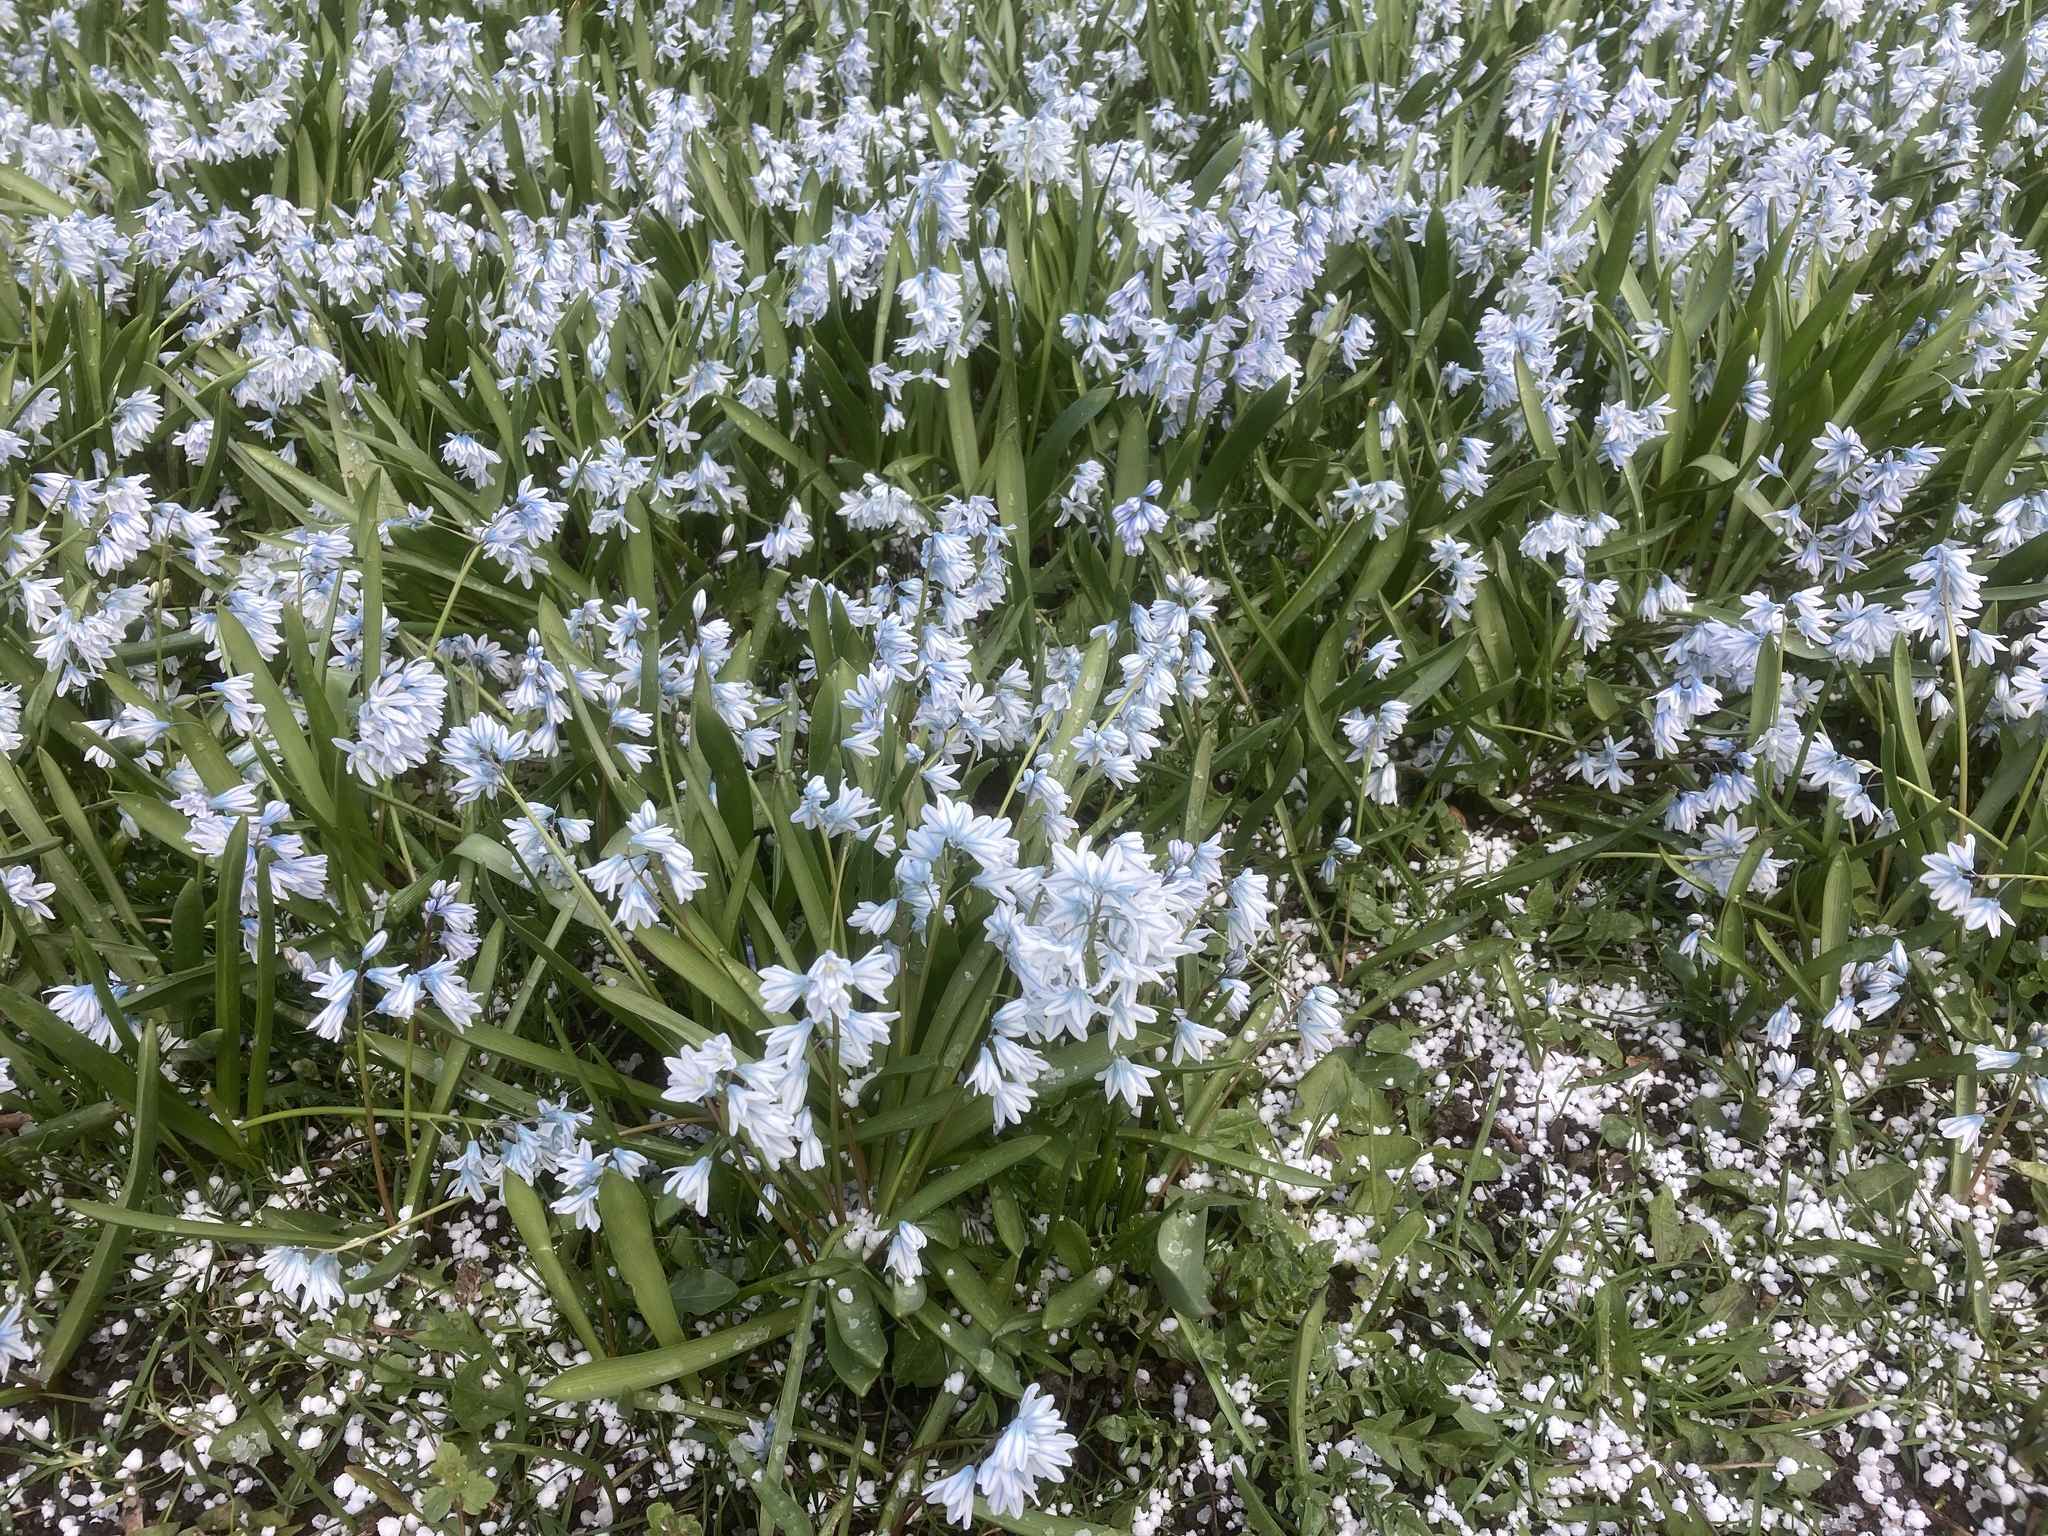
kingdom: Plantae
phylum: Tracheophyta
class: Liliopsida
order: Asparagales
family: Asparagaceae
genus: Puschkinia
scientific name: Puschkinia scilloides
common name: Striped squill
